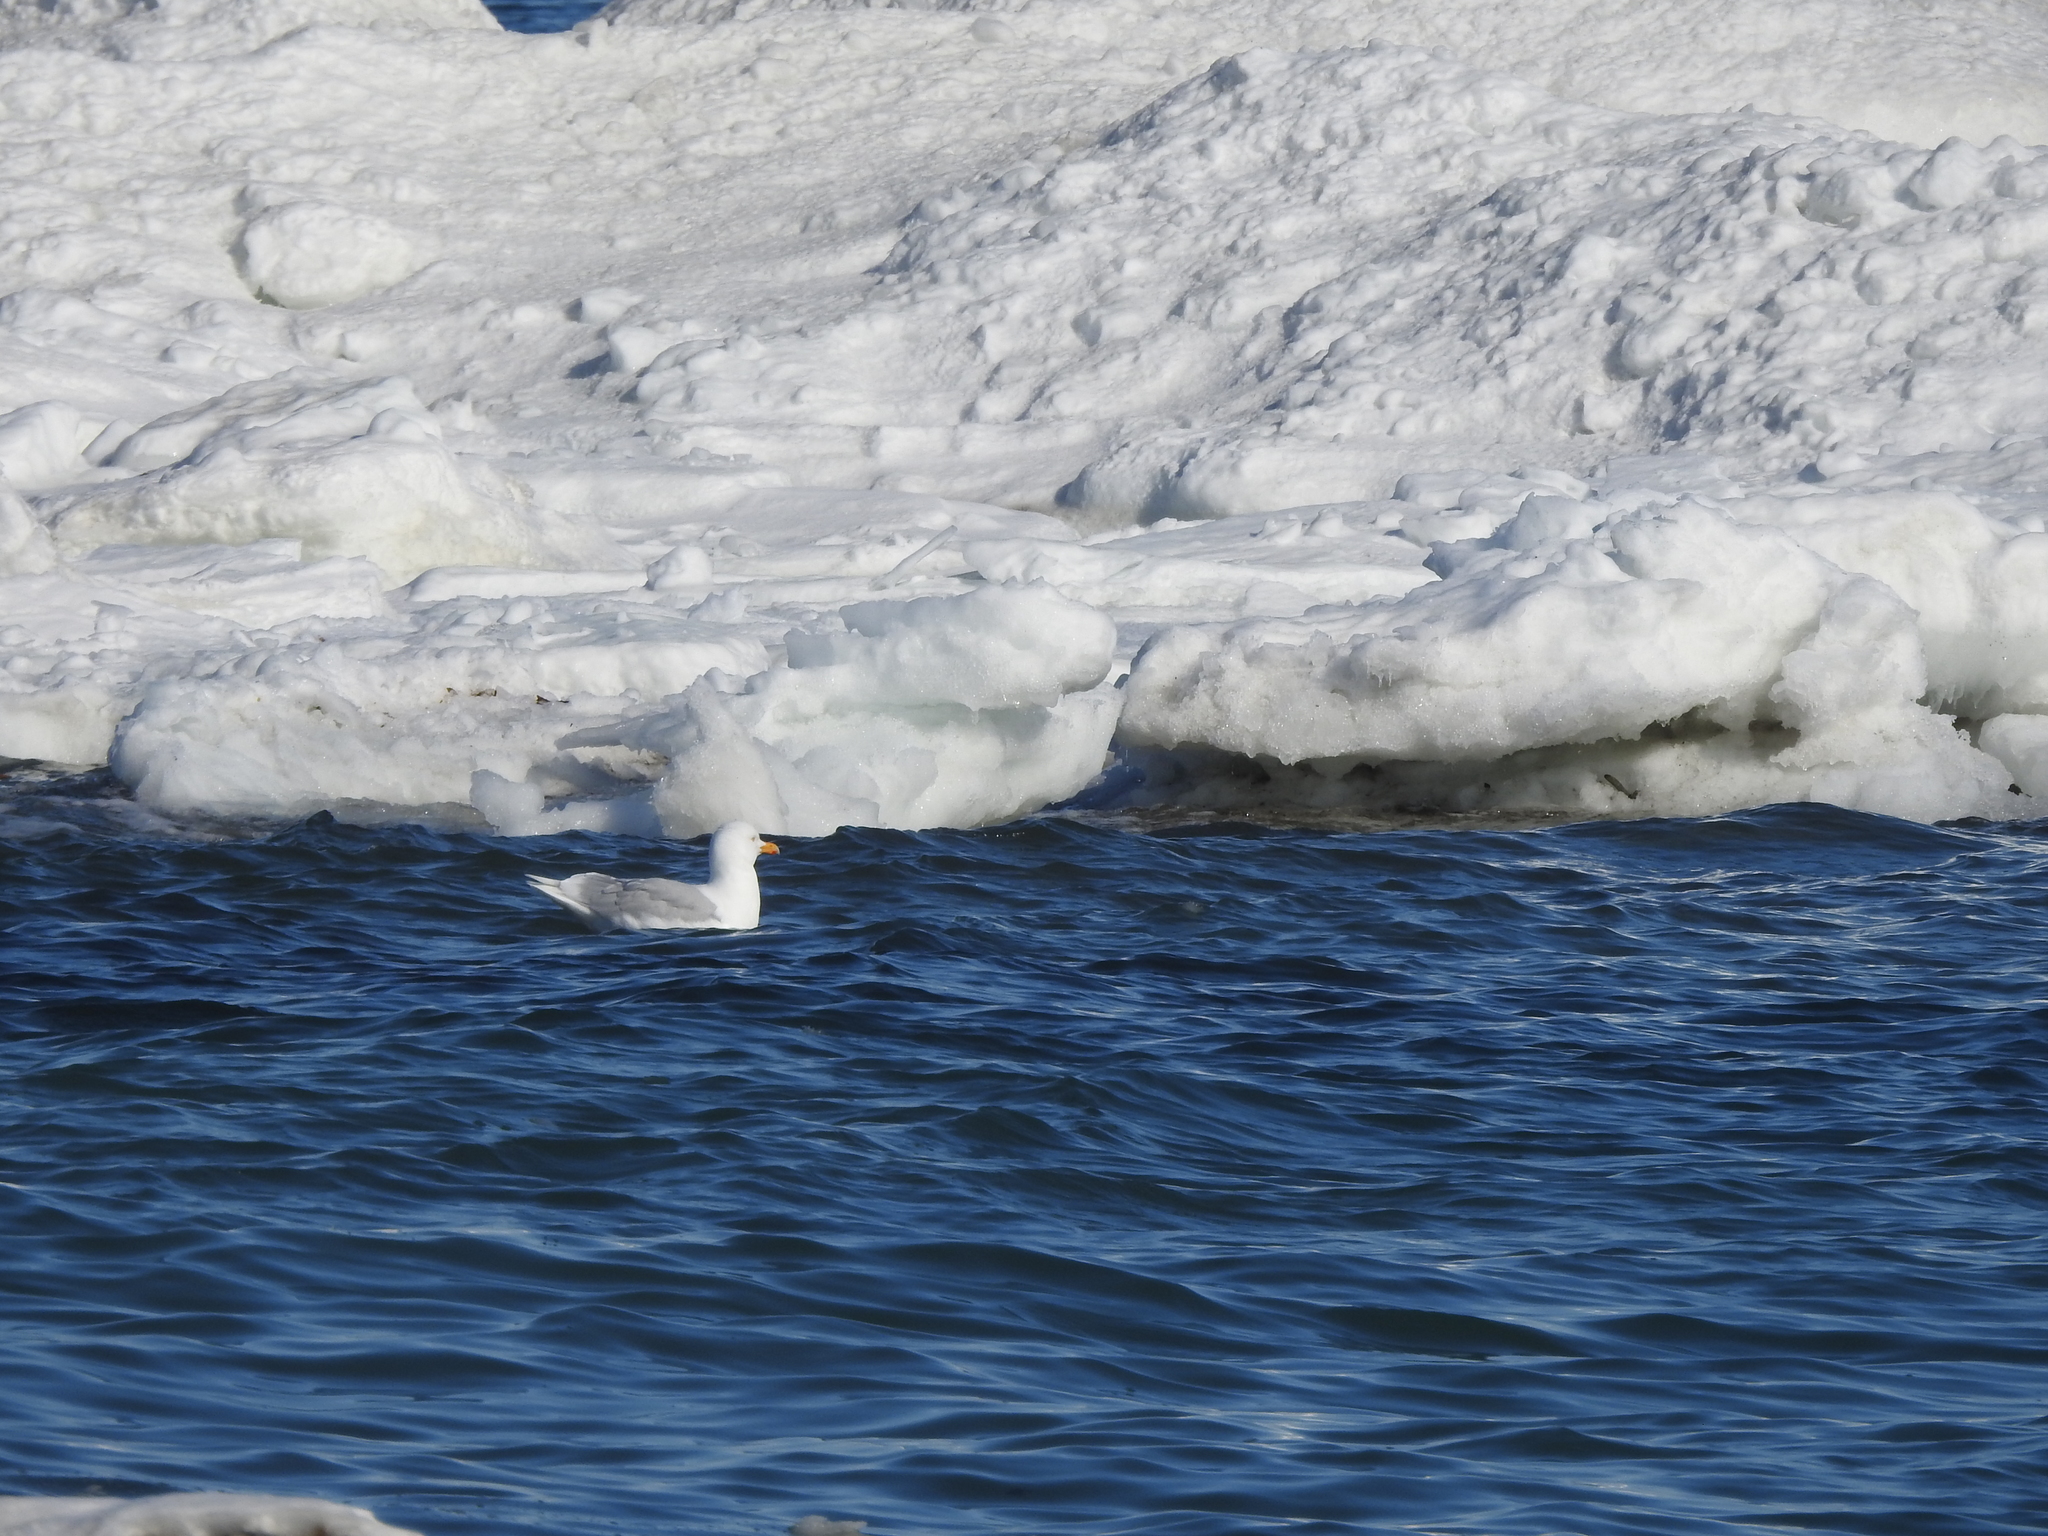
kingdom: Animalia
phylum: Chordata
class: Aves
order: Charadriiformes
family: Laridae
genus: Larus
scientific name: Larus hyperboreus
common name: Glaucous gull
